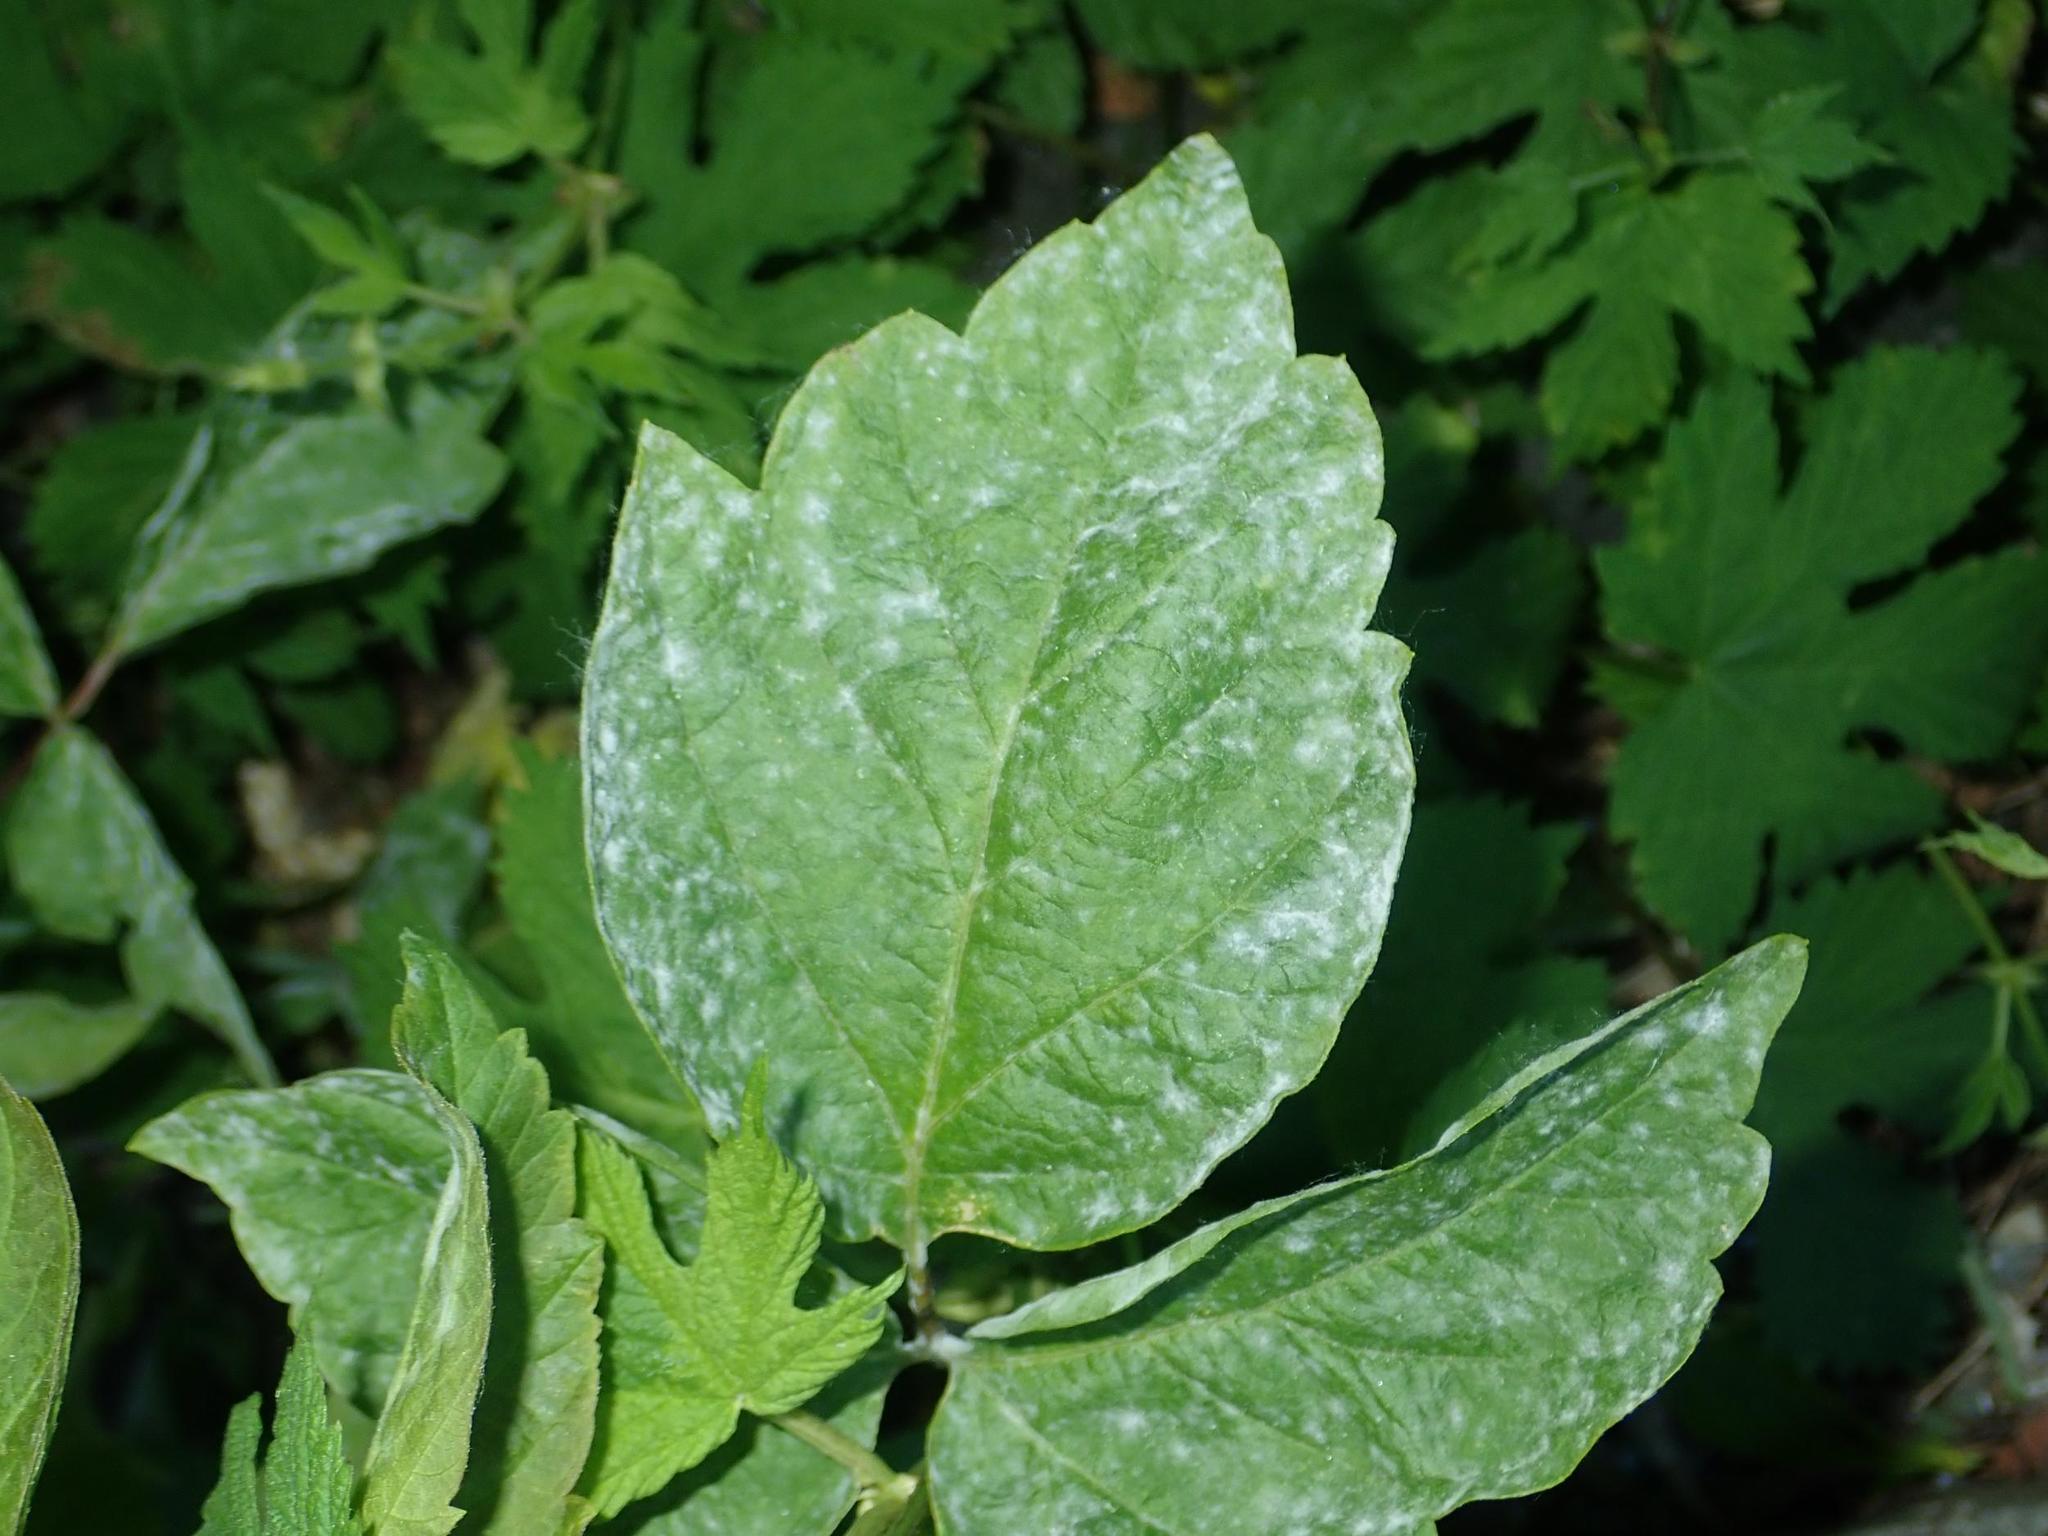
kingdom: Fungi
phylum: Ascomycota
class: Leotiomycetes
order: Helotiales
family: Erysiphaceae
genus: Sawadaea
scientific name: Sawadaea bicornis
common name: Maple mildew
